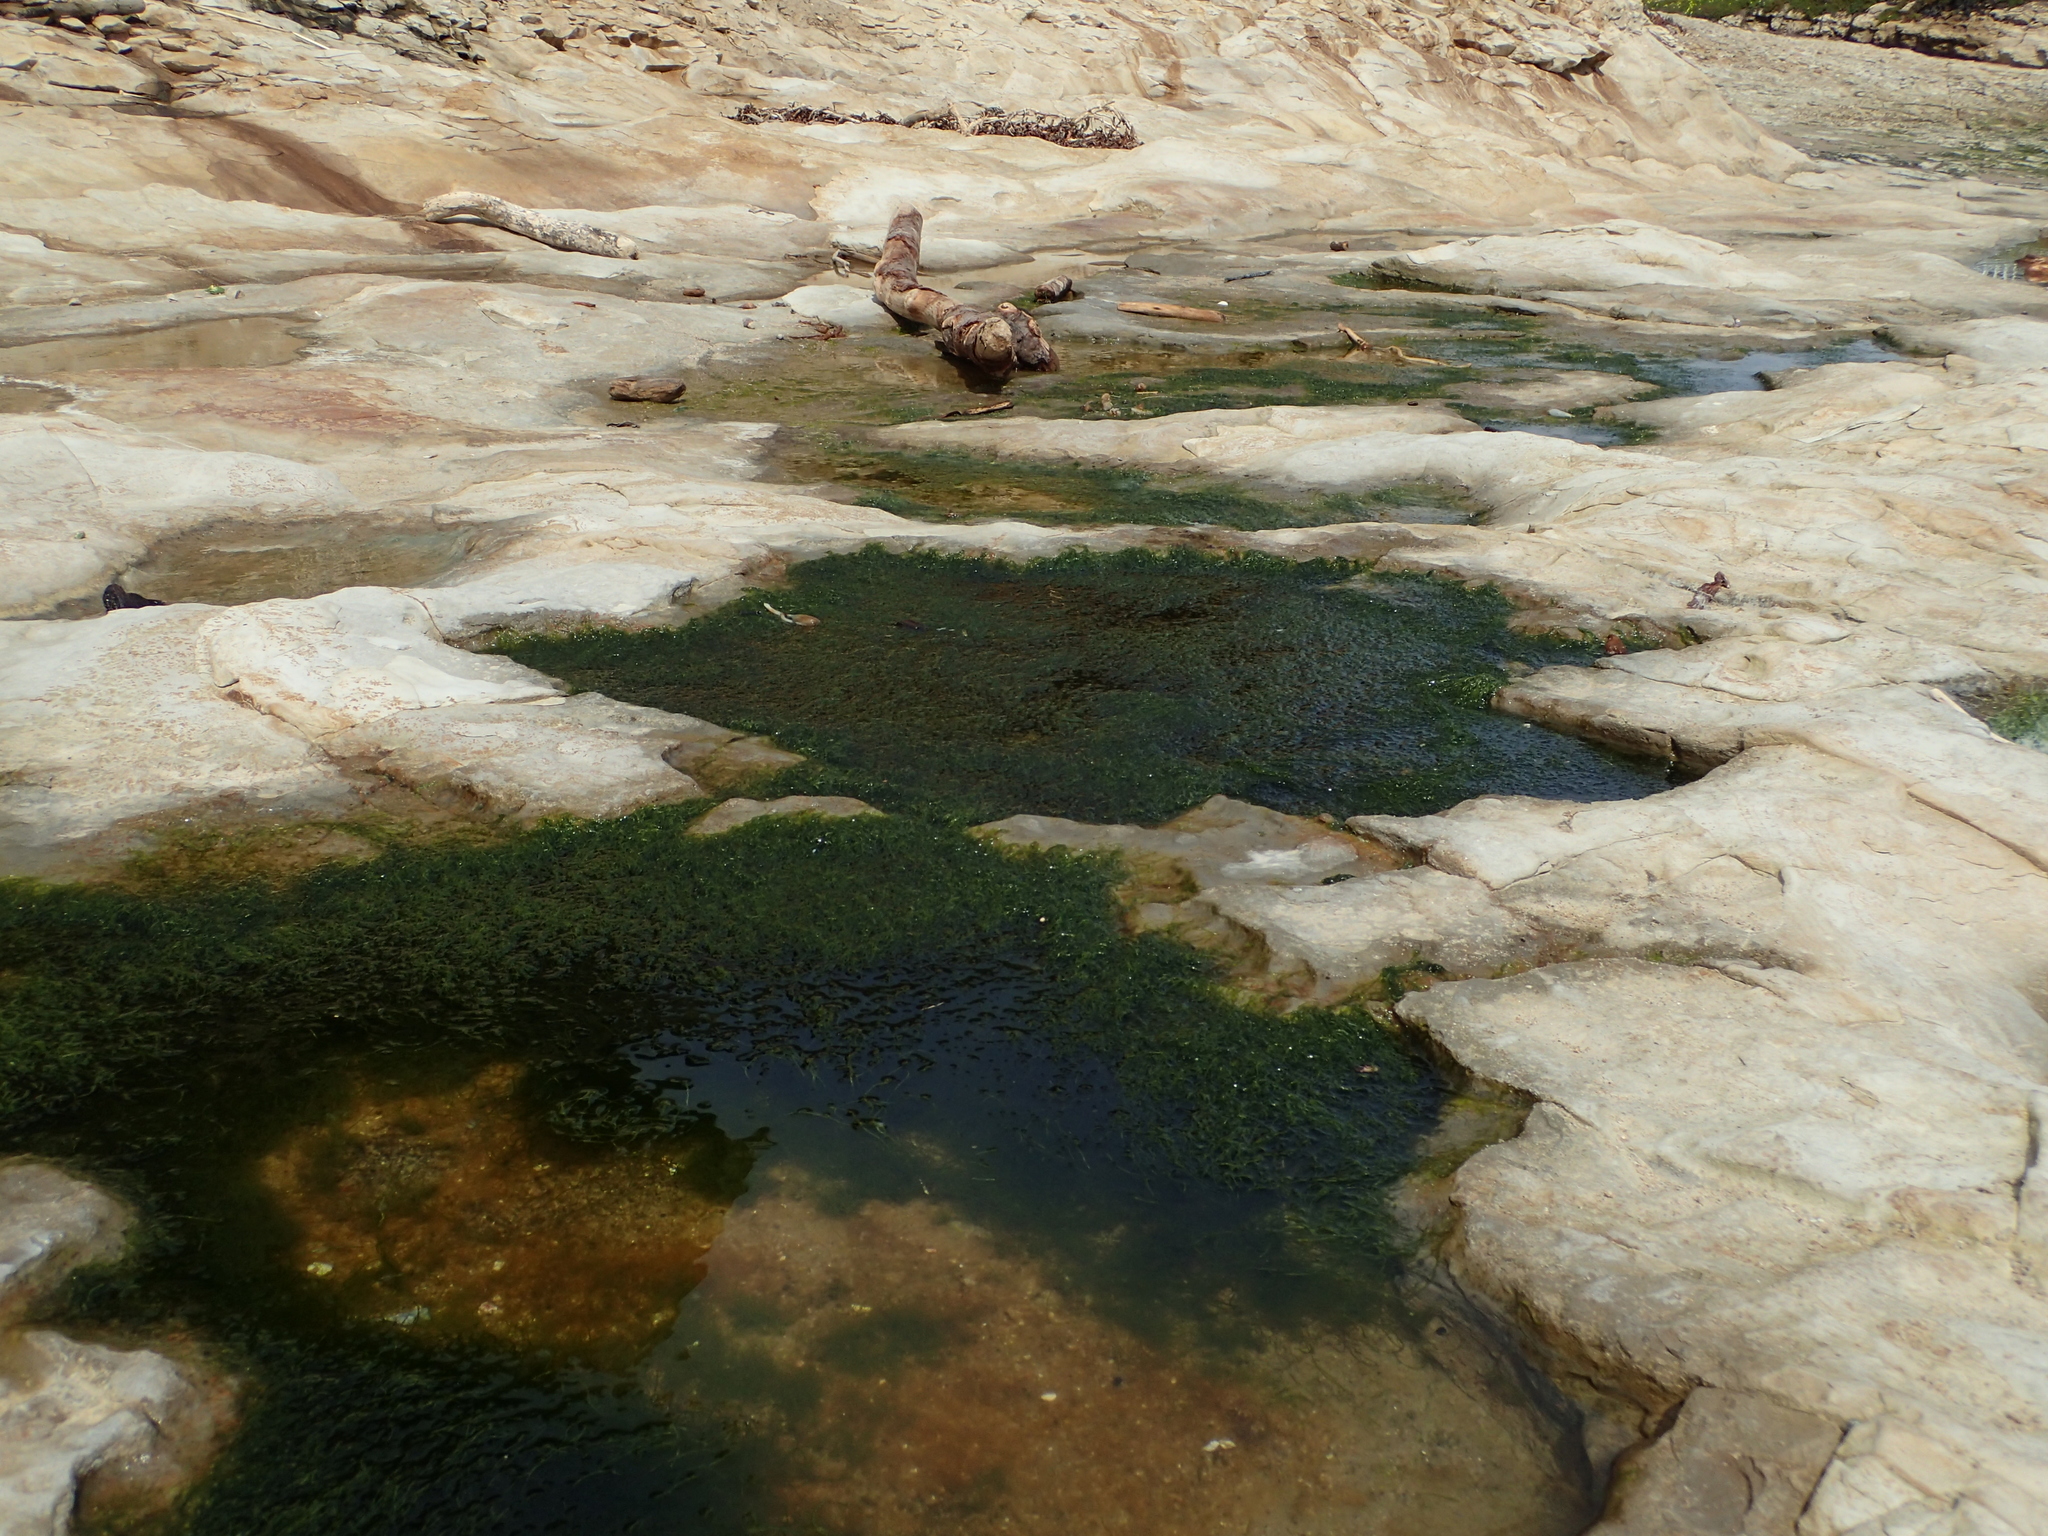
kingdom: Plantae
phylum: Chlorophyta
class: Ulvophyceae
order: Ulvales
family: Ulvaceae
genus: Ulva
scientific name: Ulva intestinalis
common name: Gut weed
